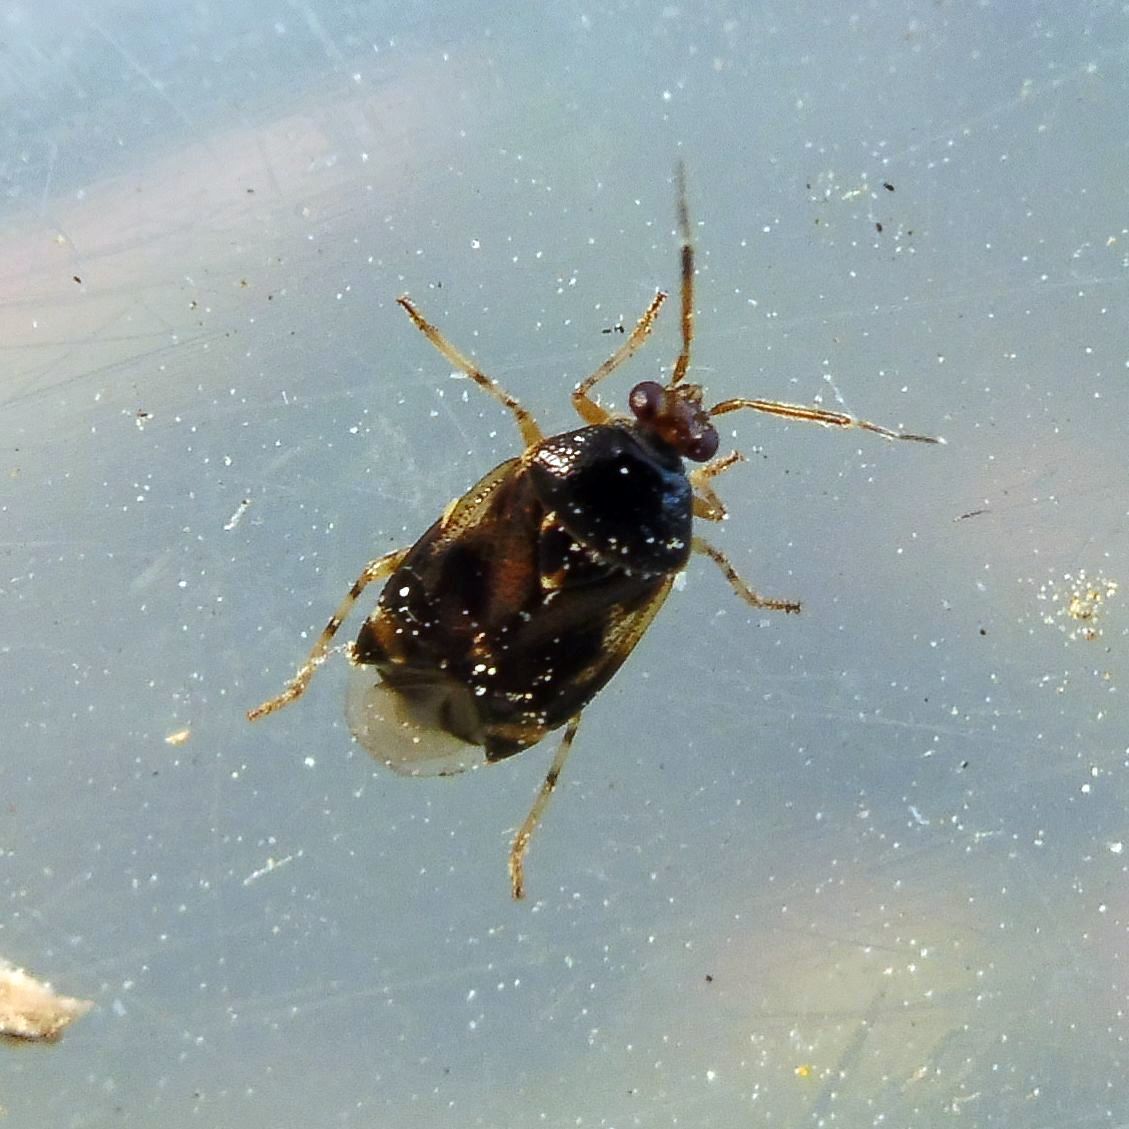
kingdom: Animalia
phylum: Arthropoda
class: Insecta
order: Hemiptera
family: Miridae
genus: Deraeocoris
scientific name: Deraeocoris lutescens
